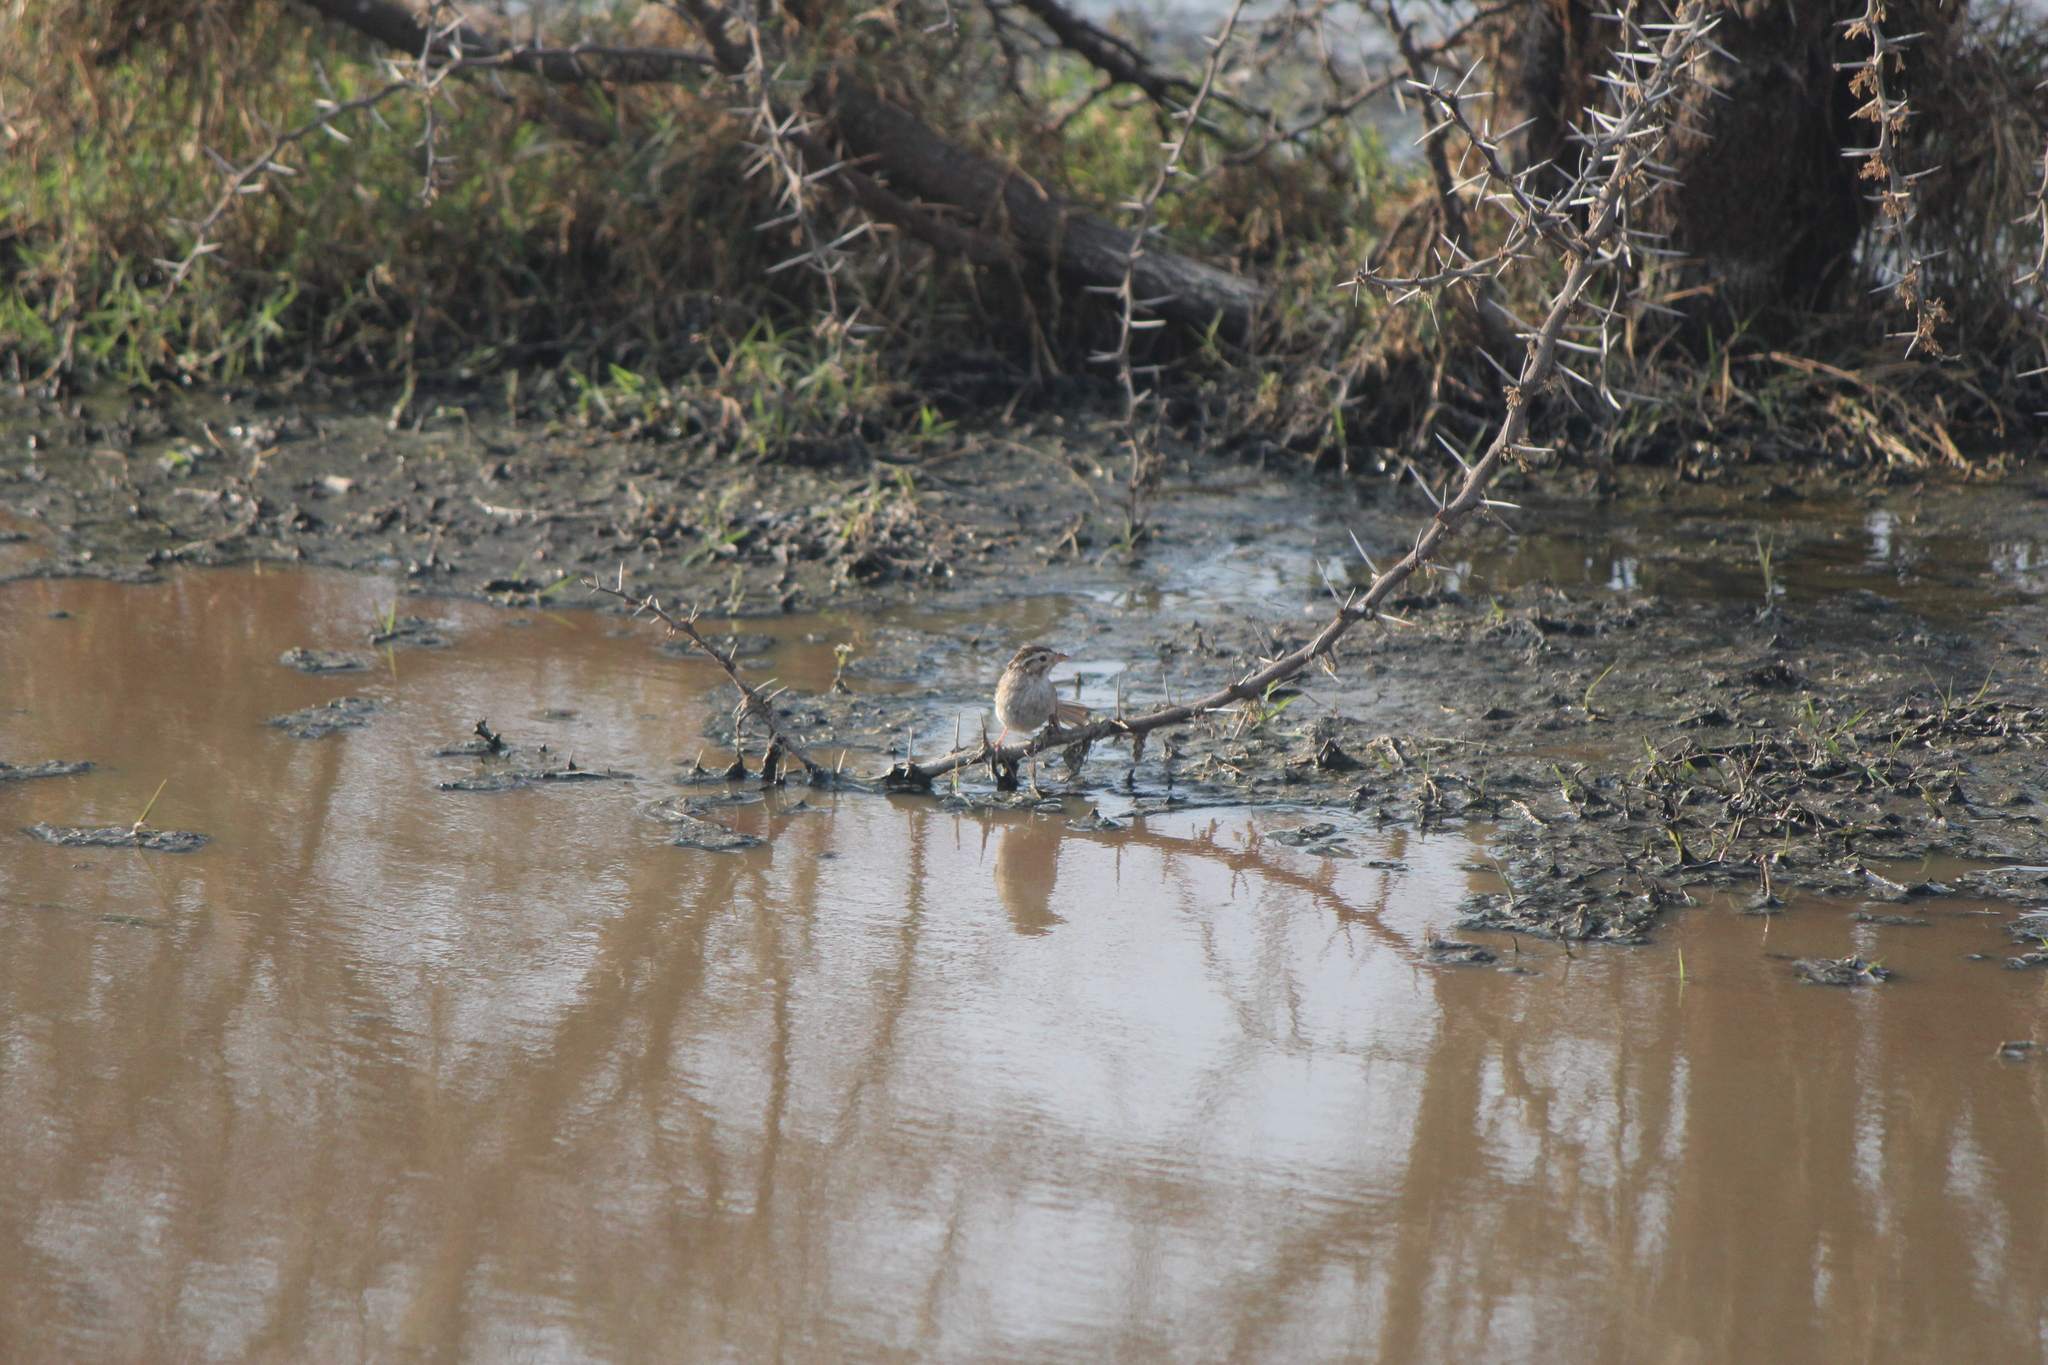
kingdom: Animalia
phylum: Chordata
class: Aves
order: Passeriformes
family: Passerellidae
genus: Spizella
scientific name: Spizella pallida
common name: Clay-colored sparrow
